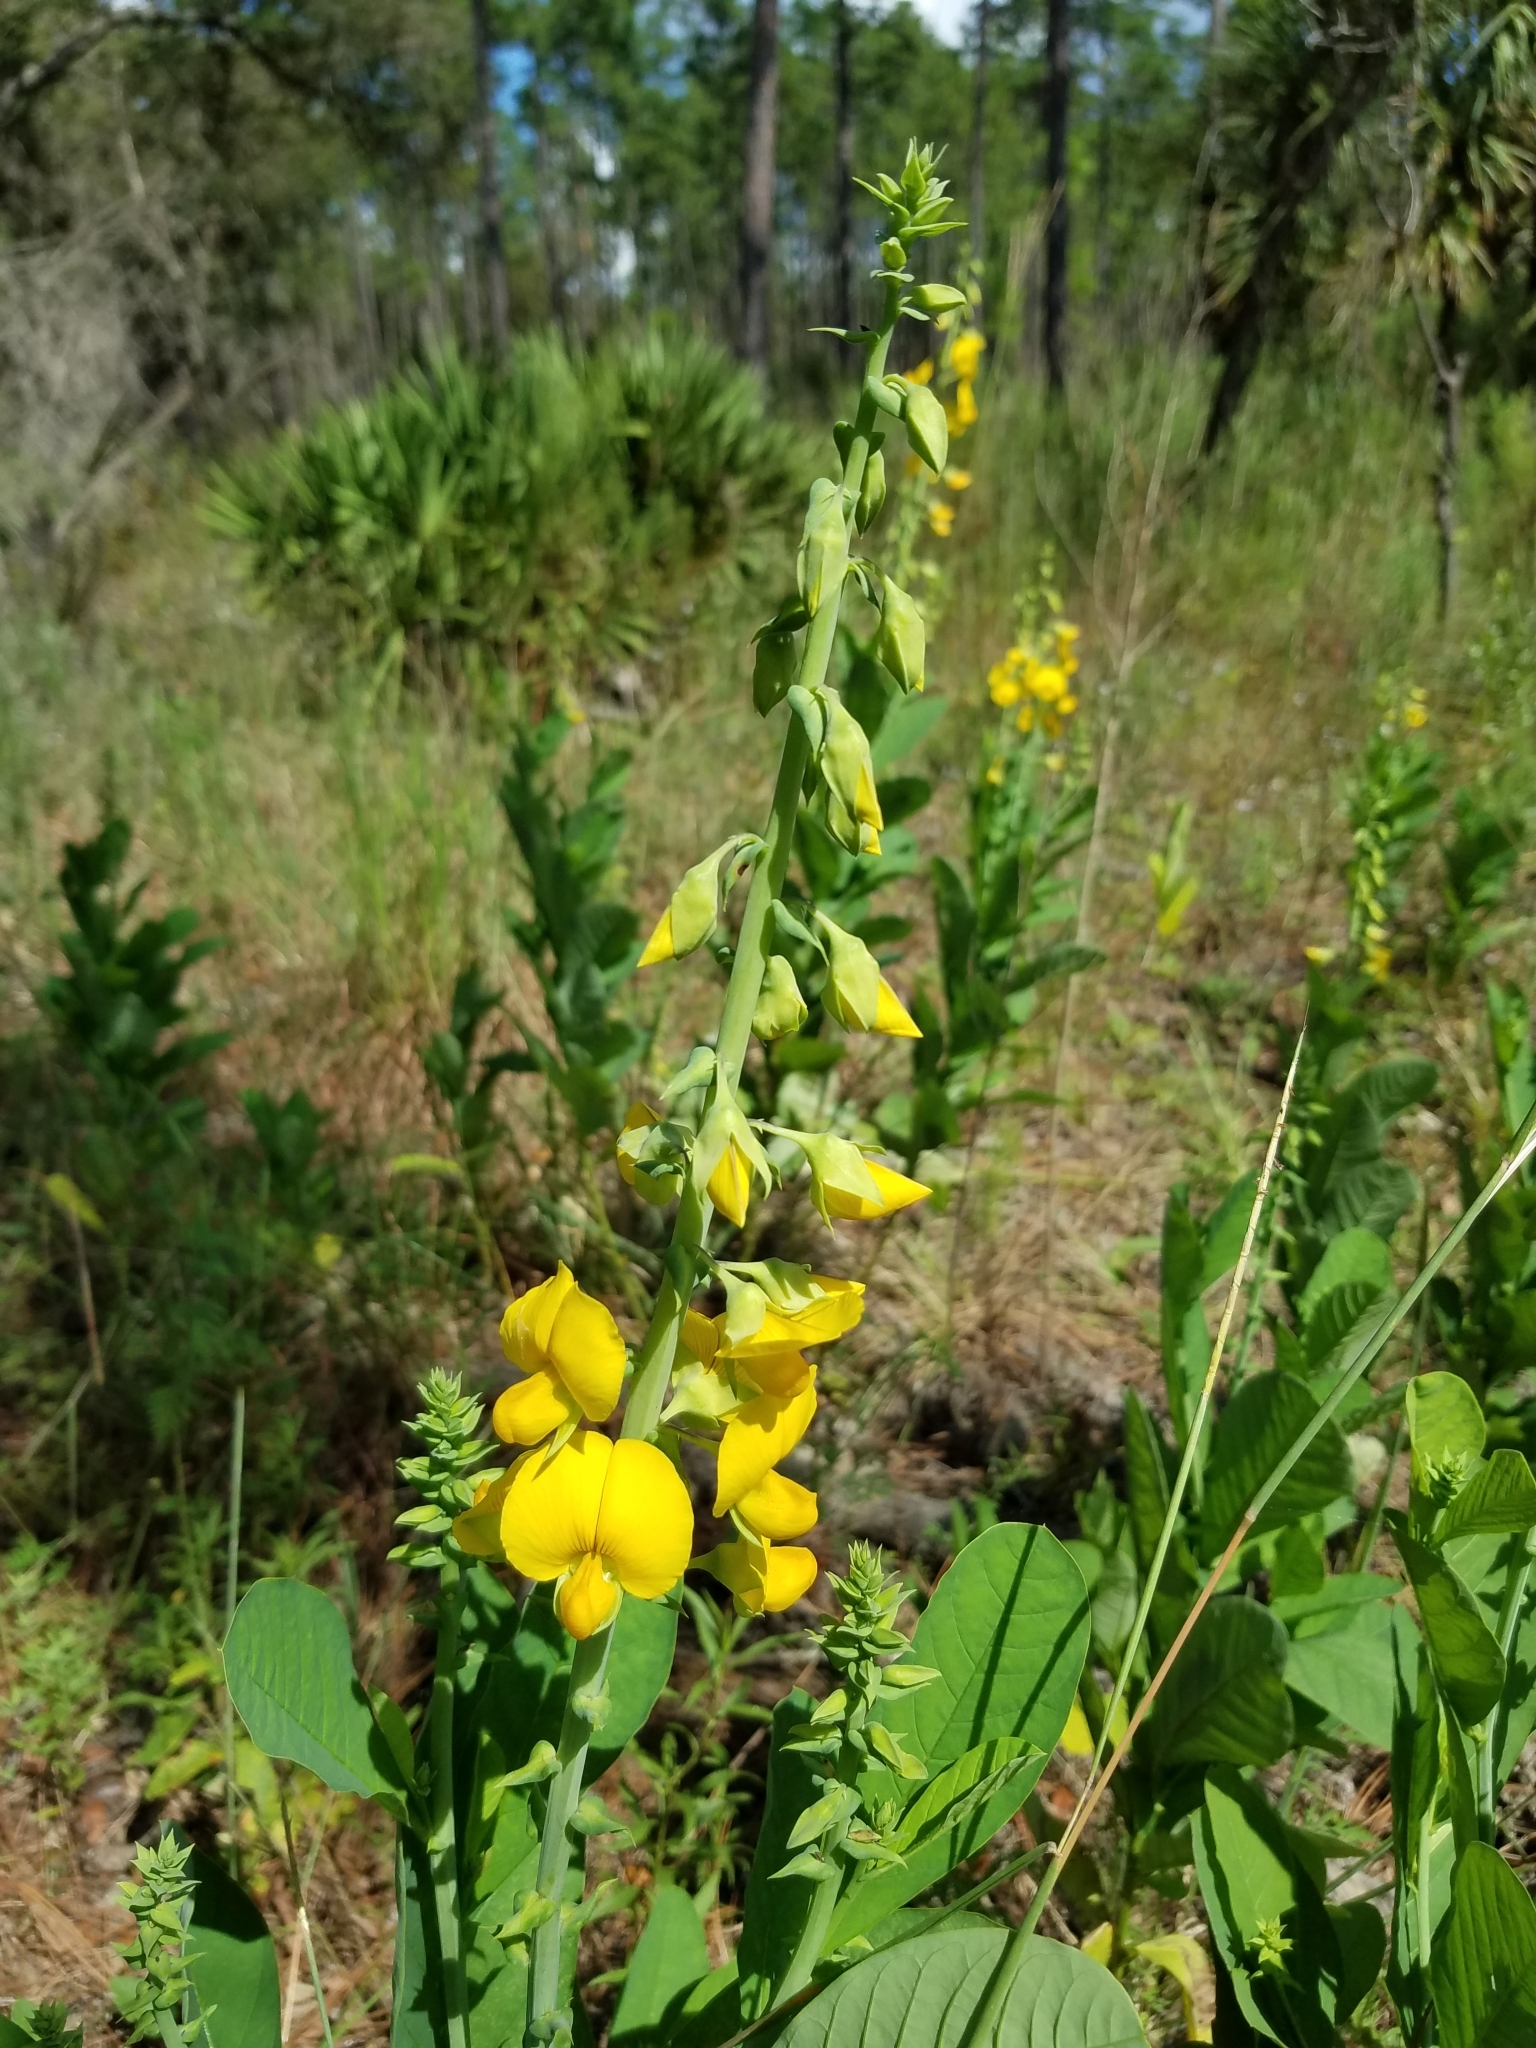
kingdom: Plantae
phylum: Tracheophyta
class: Magnoliopsida
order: Fabales
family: Fabaceae
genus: Crotalaria
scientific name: Crotalaria spectabilis
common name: Showy rattlebox
